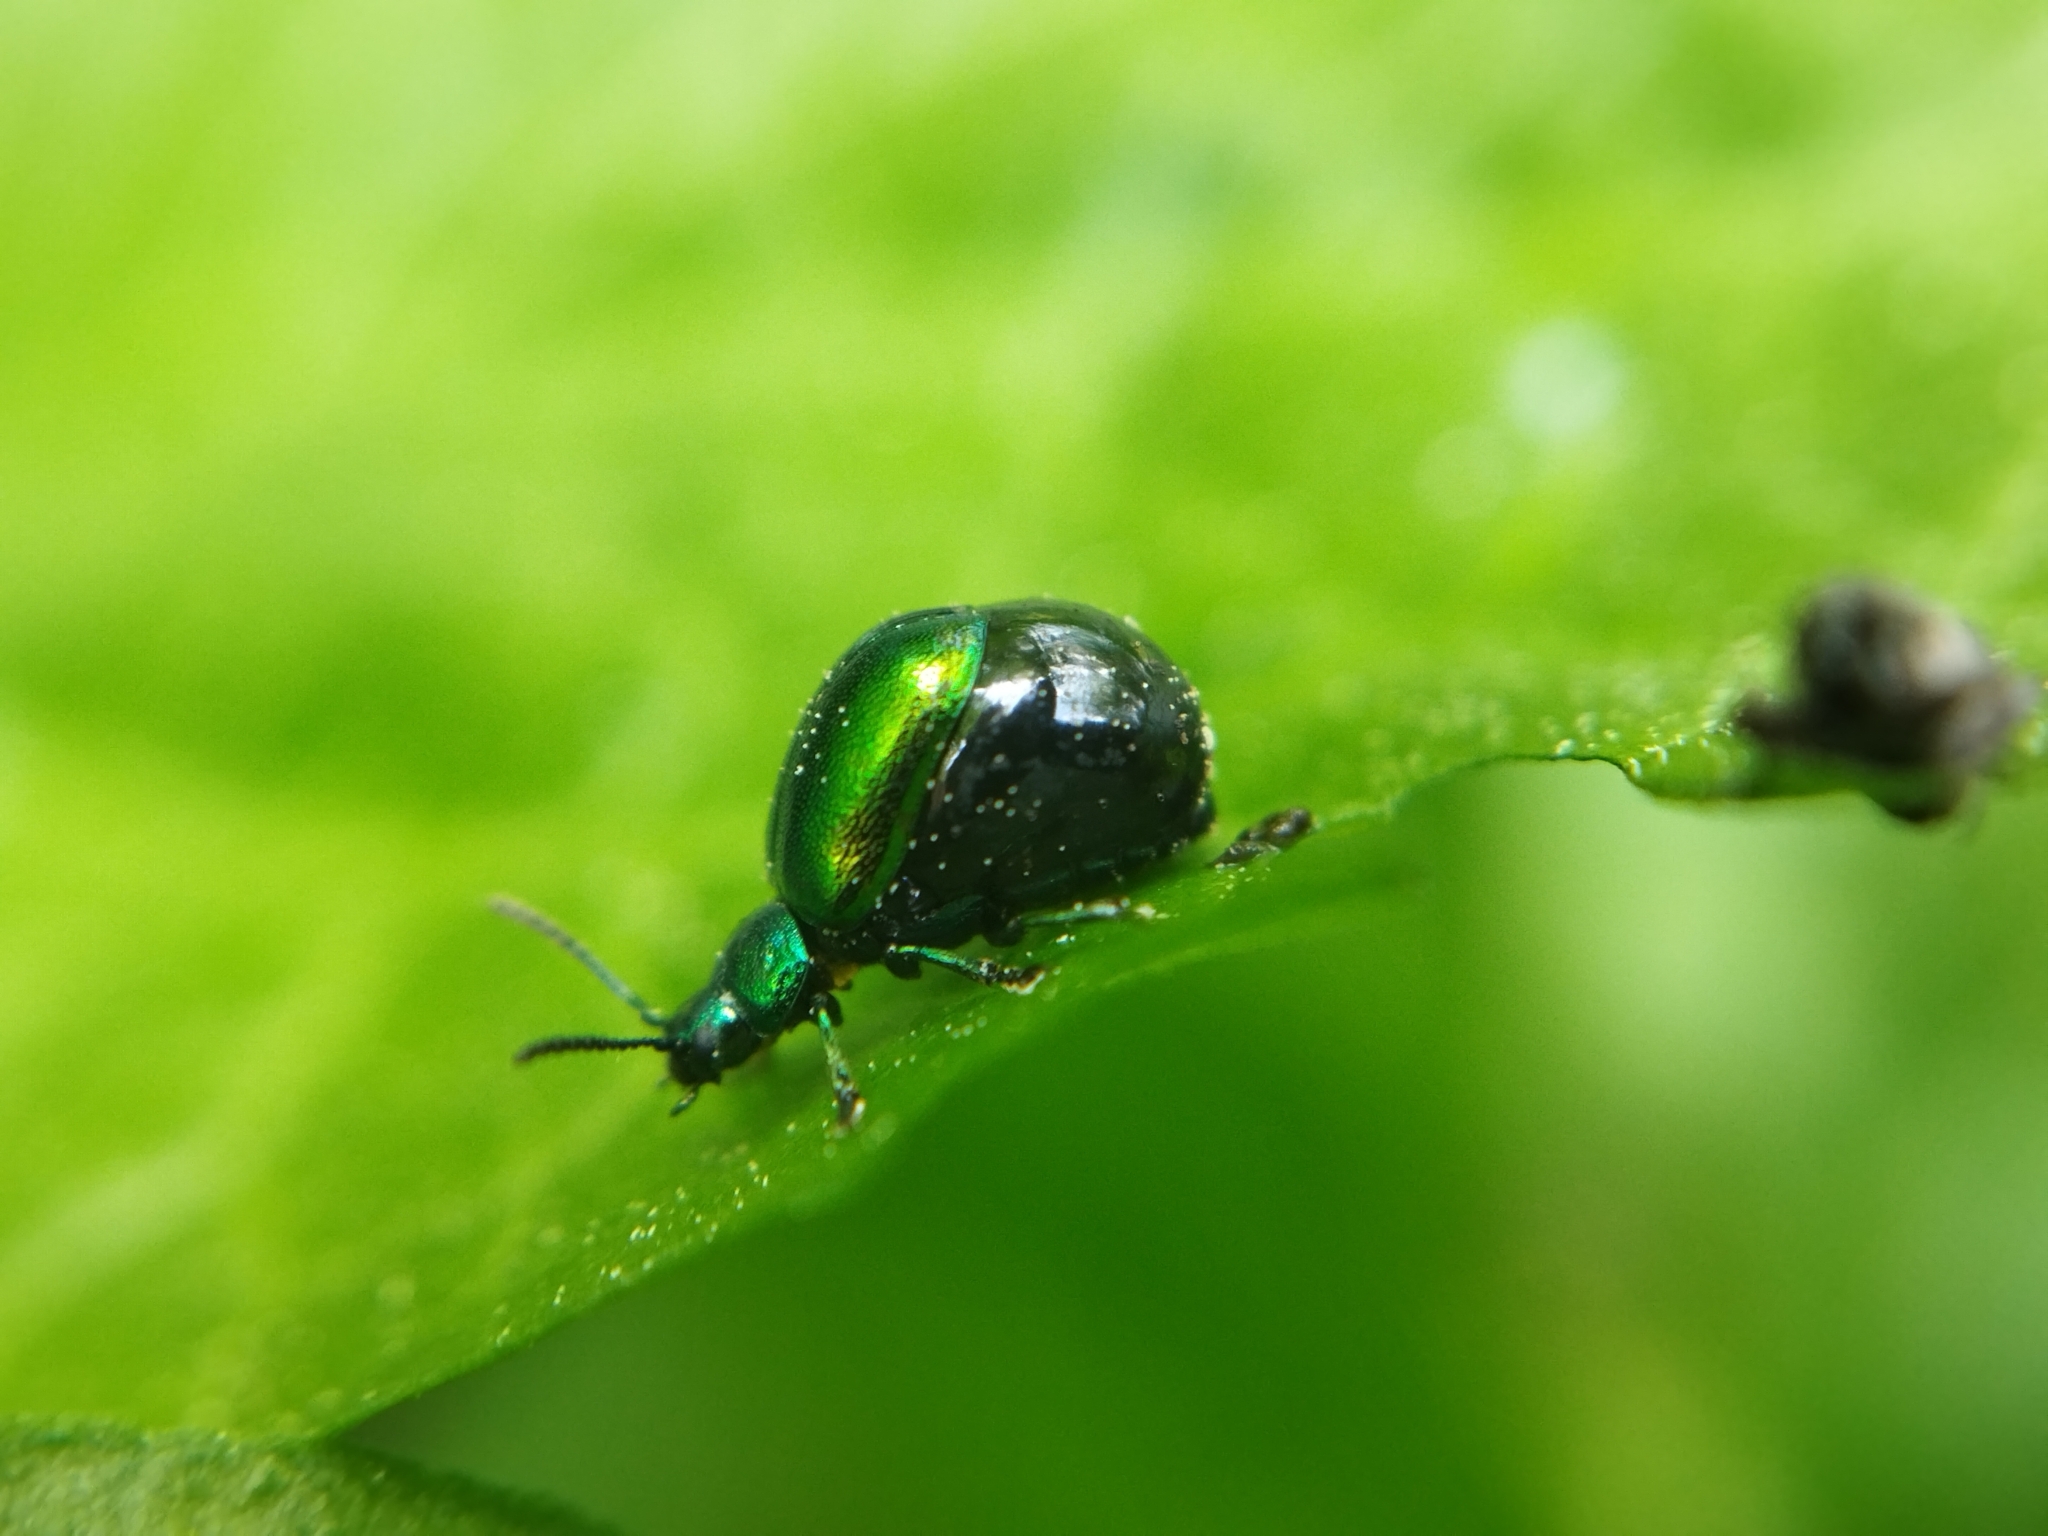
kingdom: Animalia
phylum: Arthropoda
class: Insecta
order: Coleoptera
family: Chrysomelidae
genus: Gastrophysa
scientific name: Gastrophysa viridula
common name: Green dock beetle
